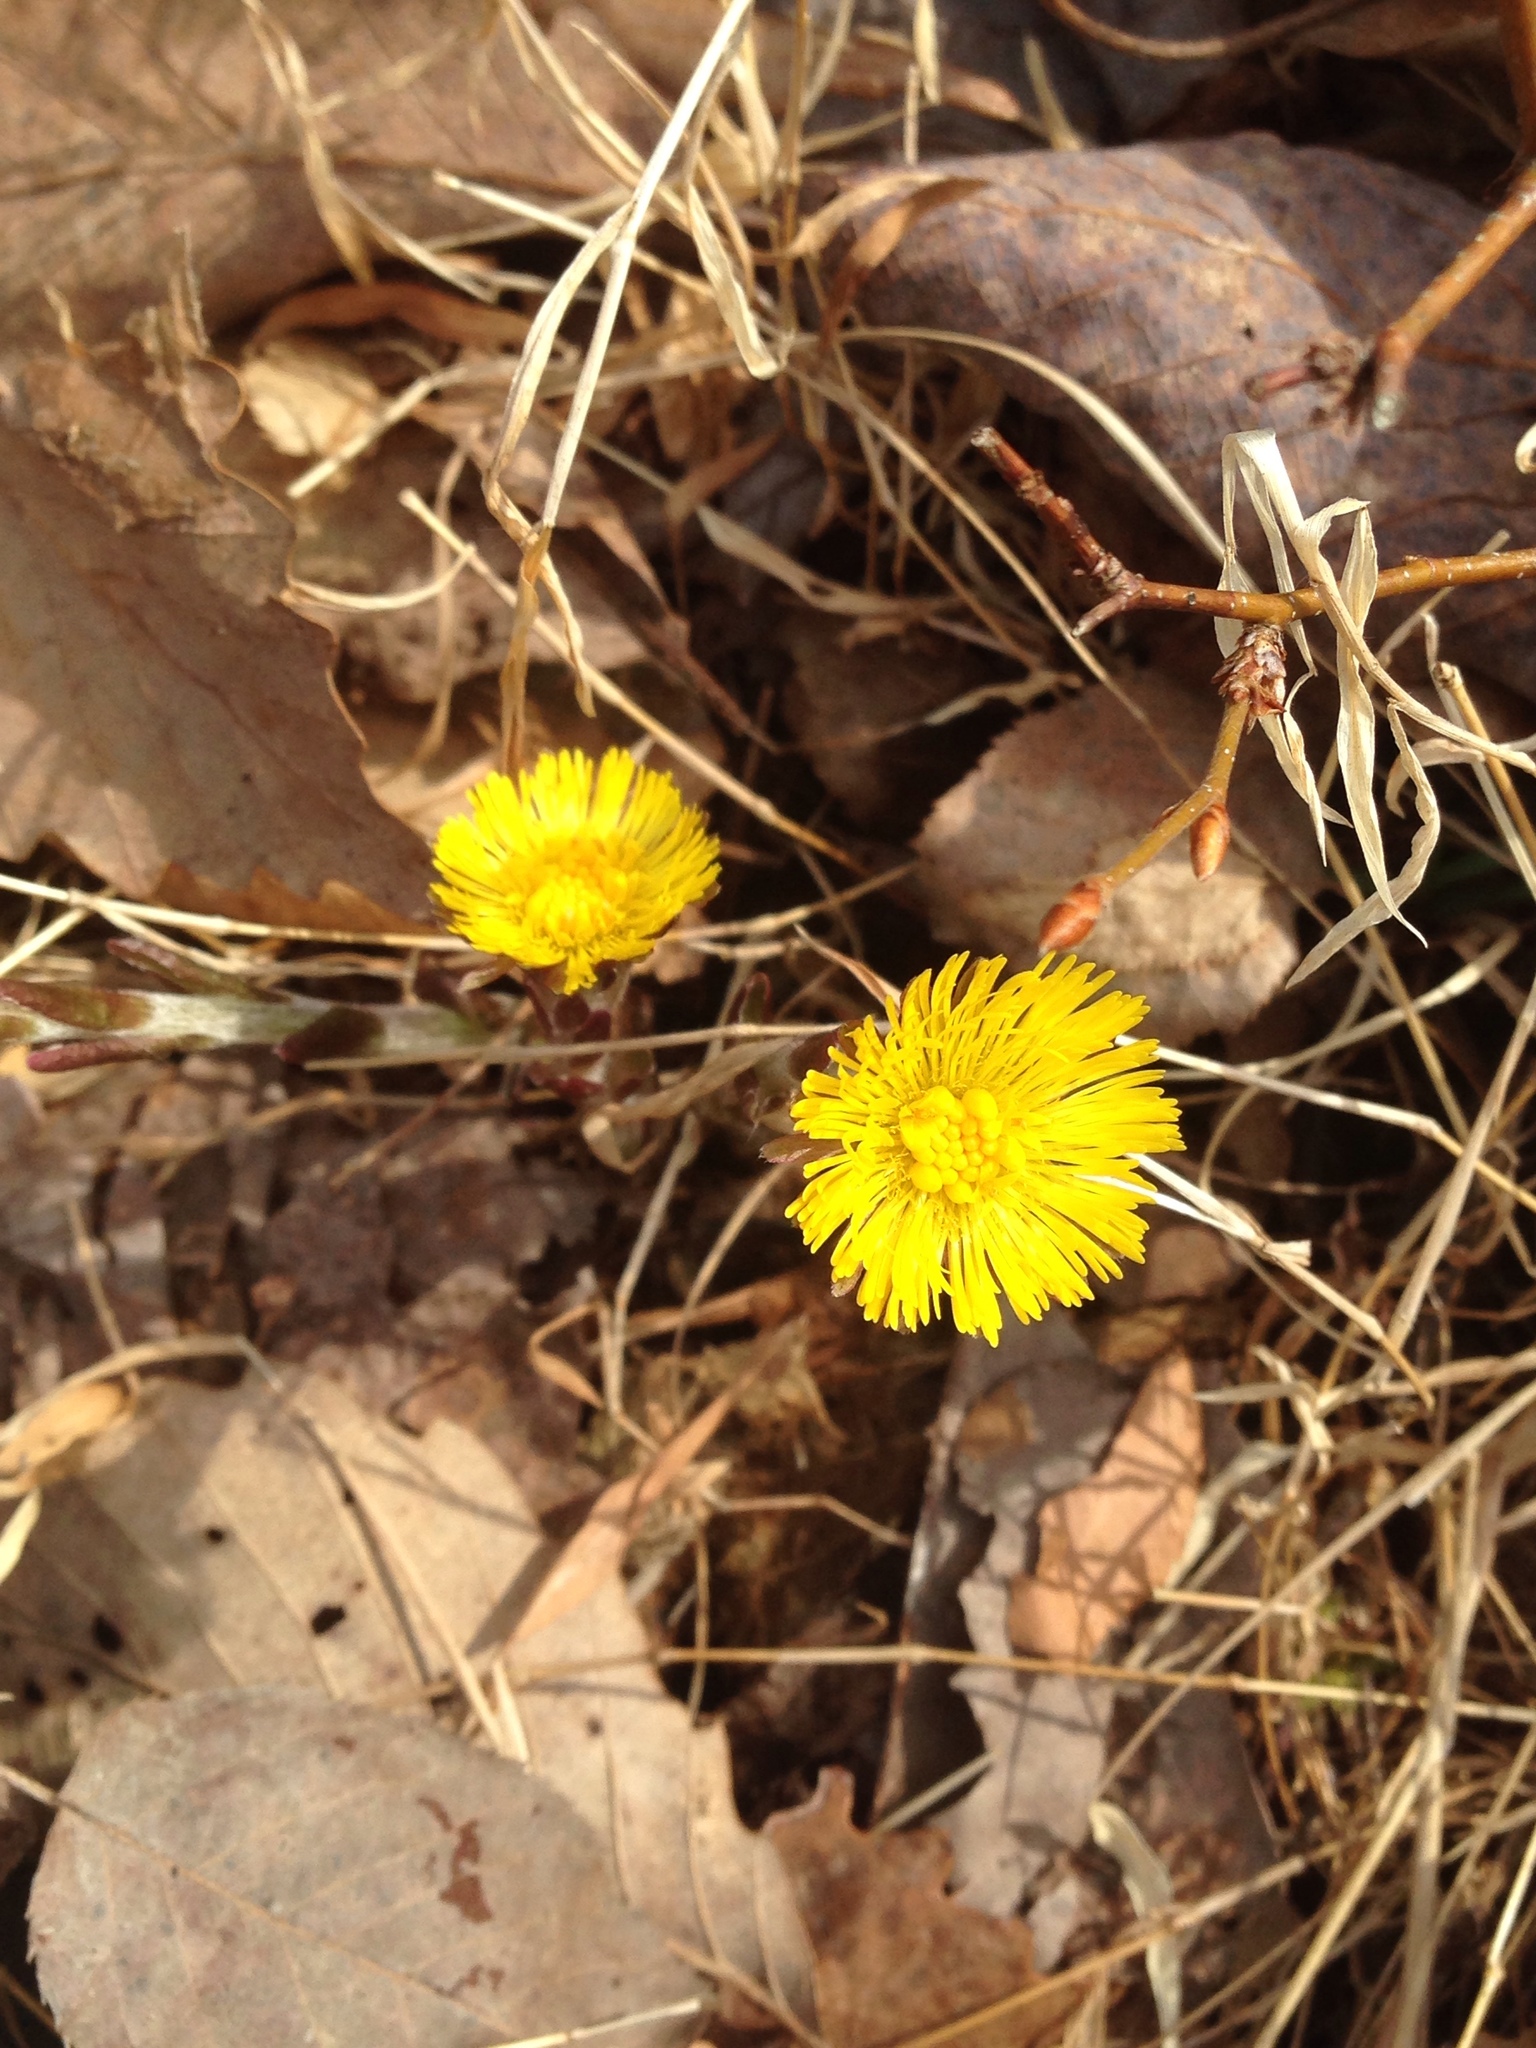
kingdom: Plantae
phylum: Tracheophyta
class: Magnoliopsida
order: Asterales
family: Asteraceae
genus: Tussilago
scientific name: Tussilago farfara
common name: Coltsfoot
